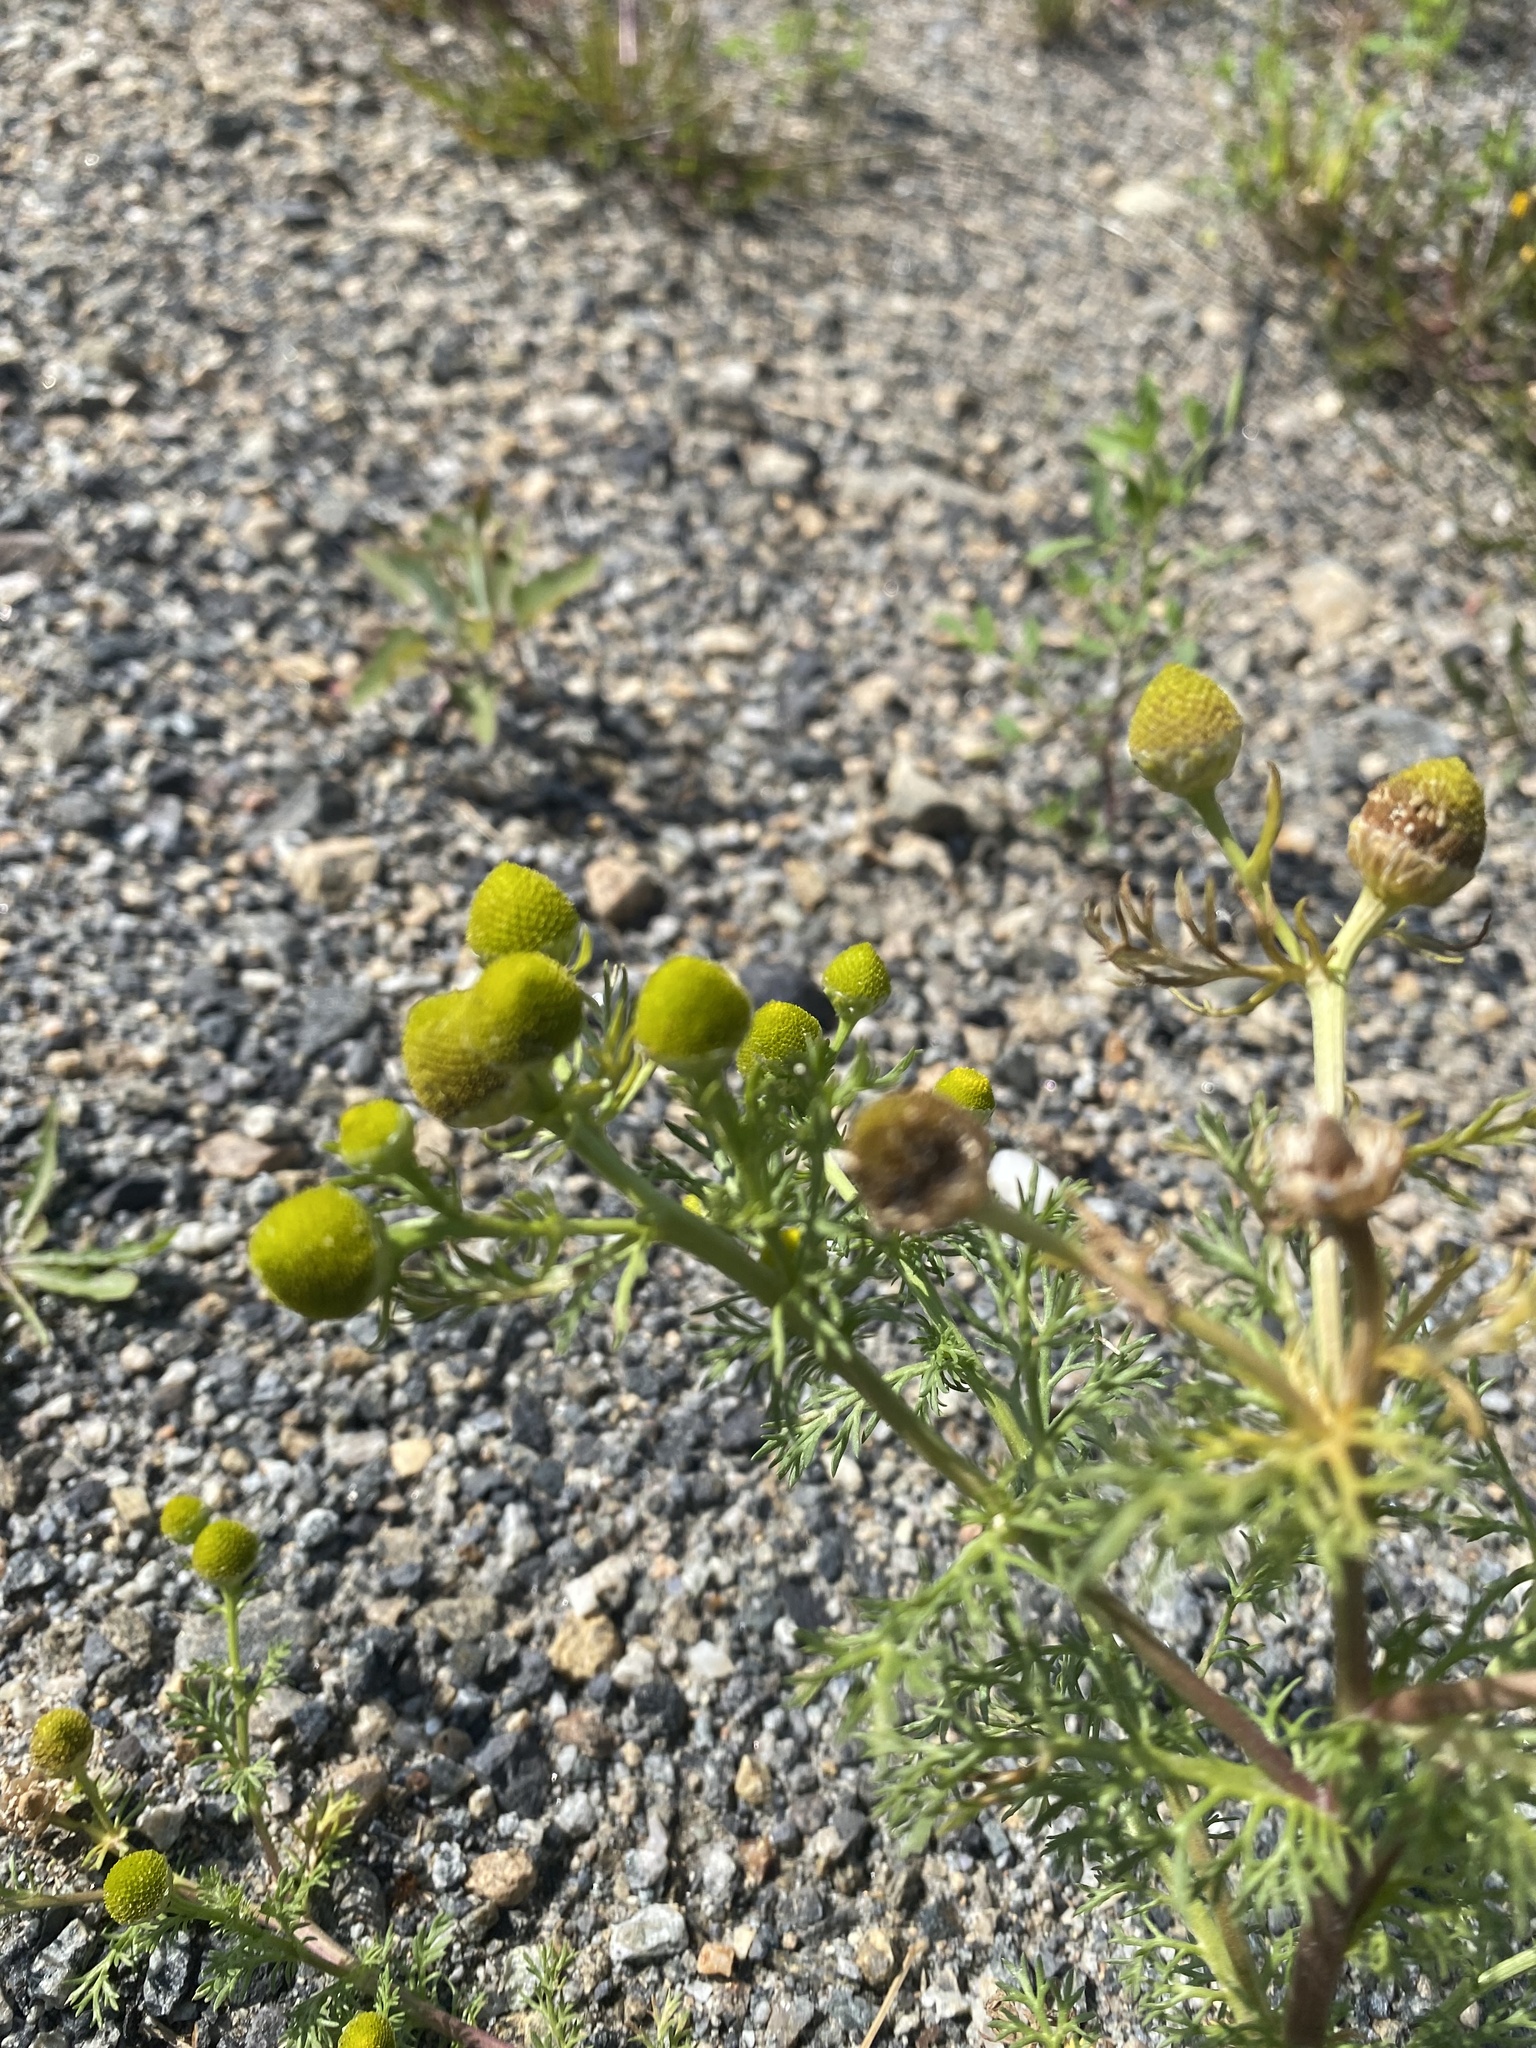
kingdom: Plantae
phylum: Tracheophyta
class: Magnoliopsida
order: Asterales
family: Asteraceae
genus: Matricaria
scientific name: Matricaria discoidea
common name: Disc mayweed
